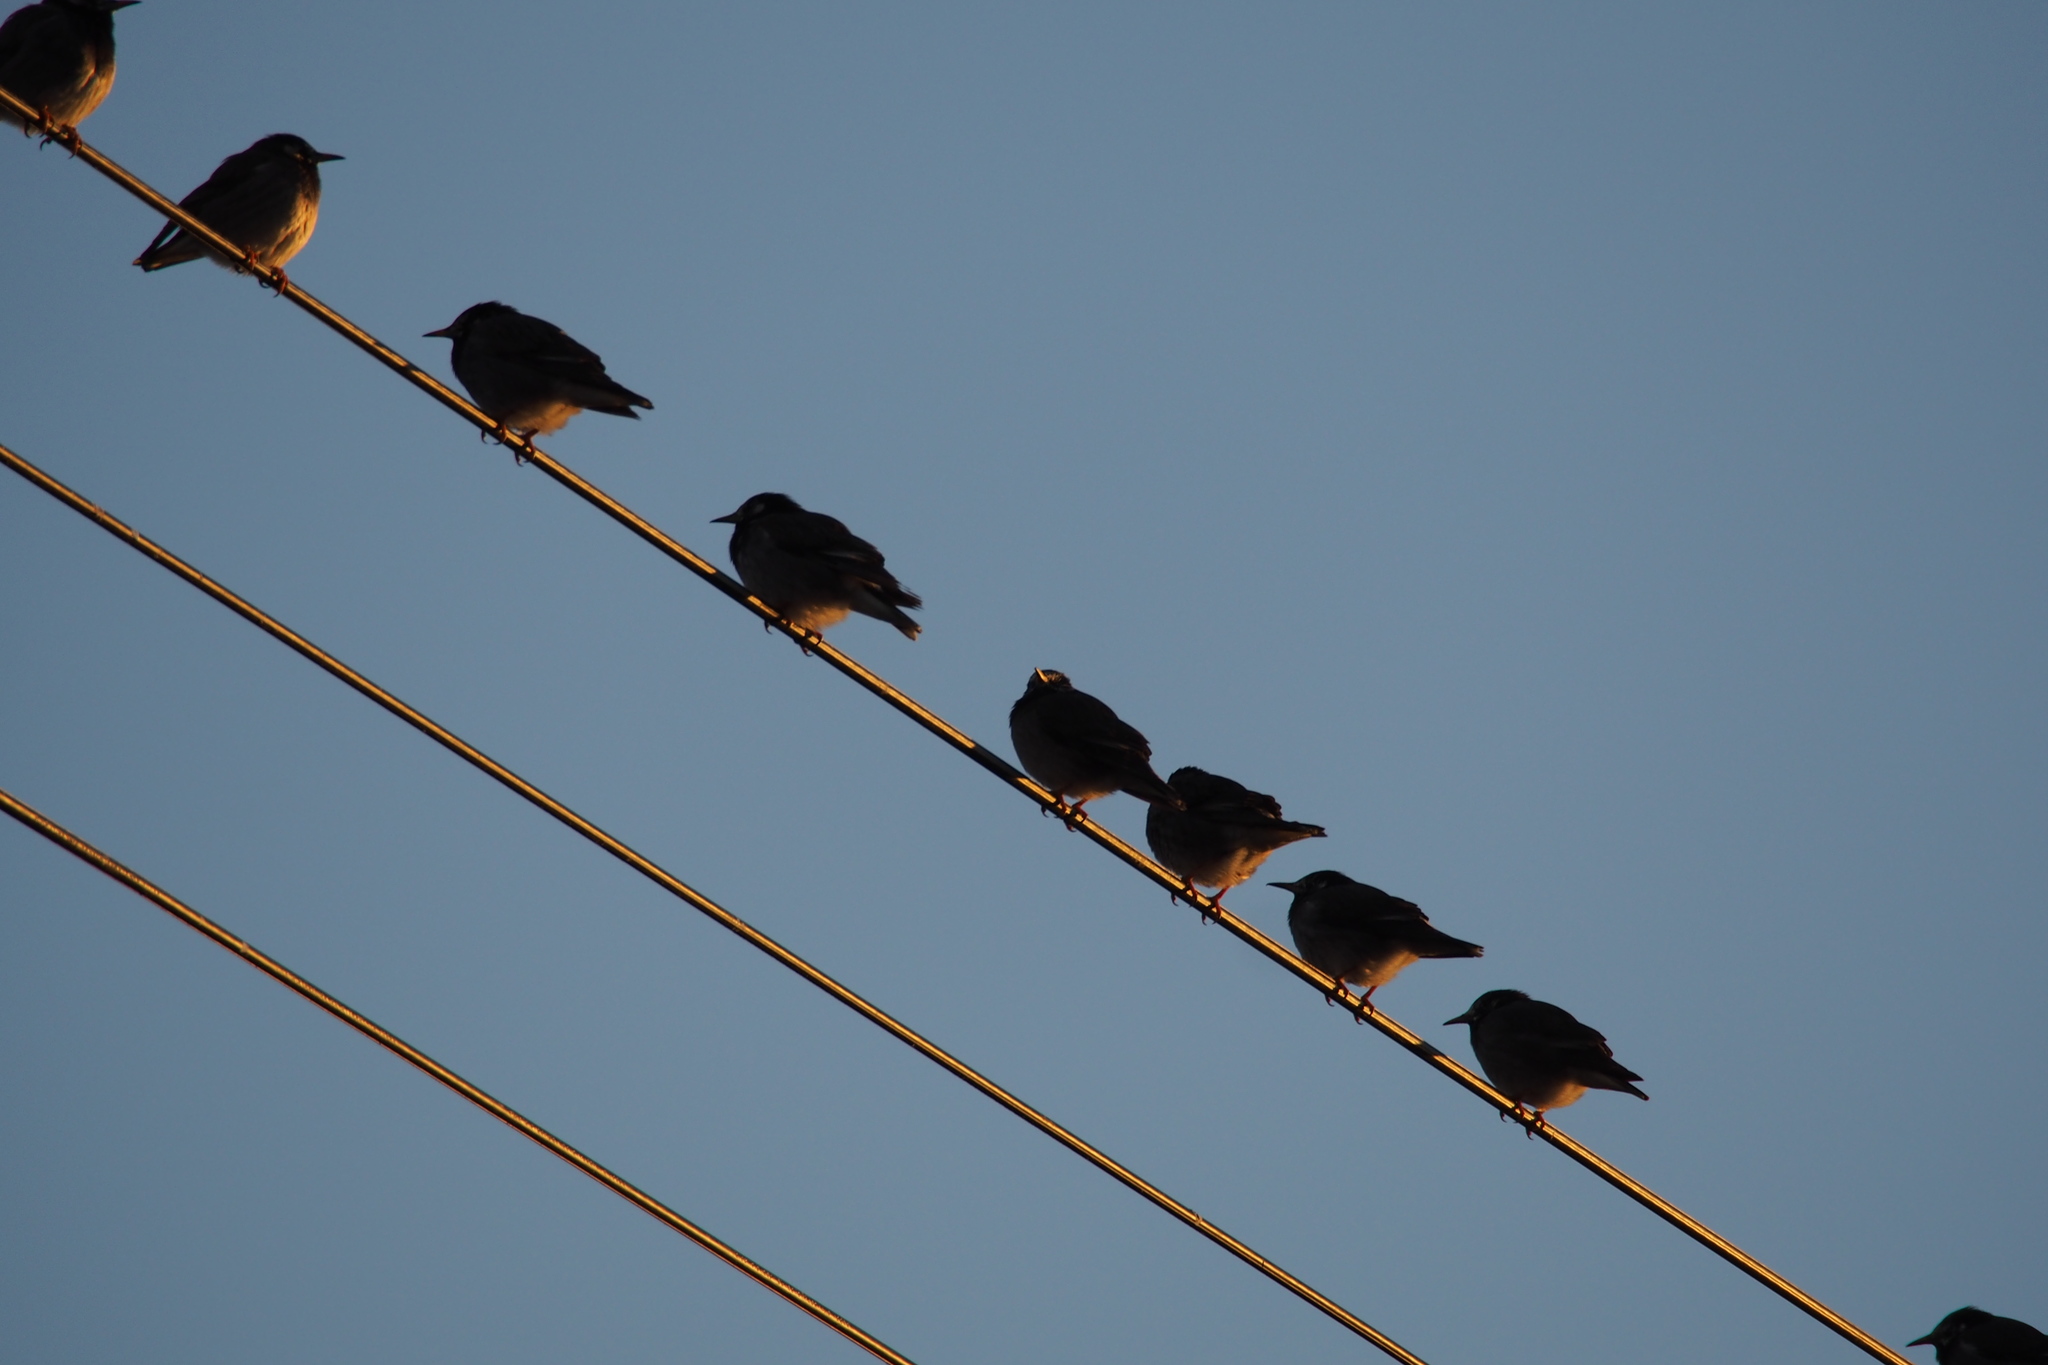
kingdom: Animalia
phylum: Chordata
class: Aves
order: Passeriformes
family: Sturnidae
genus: Spodiopsar
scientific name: Spodiopsar cineraceus
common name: White-cheeked starling
